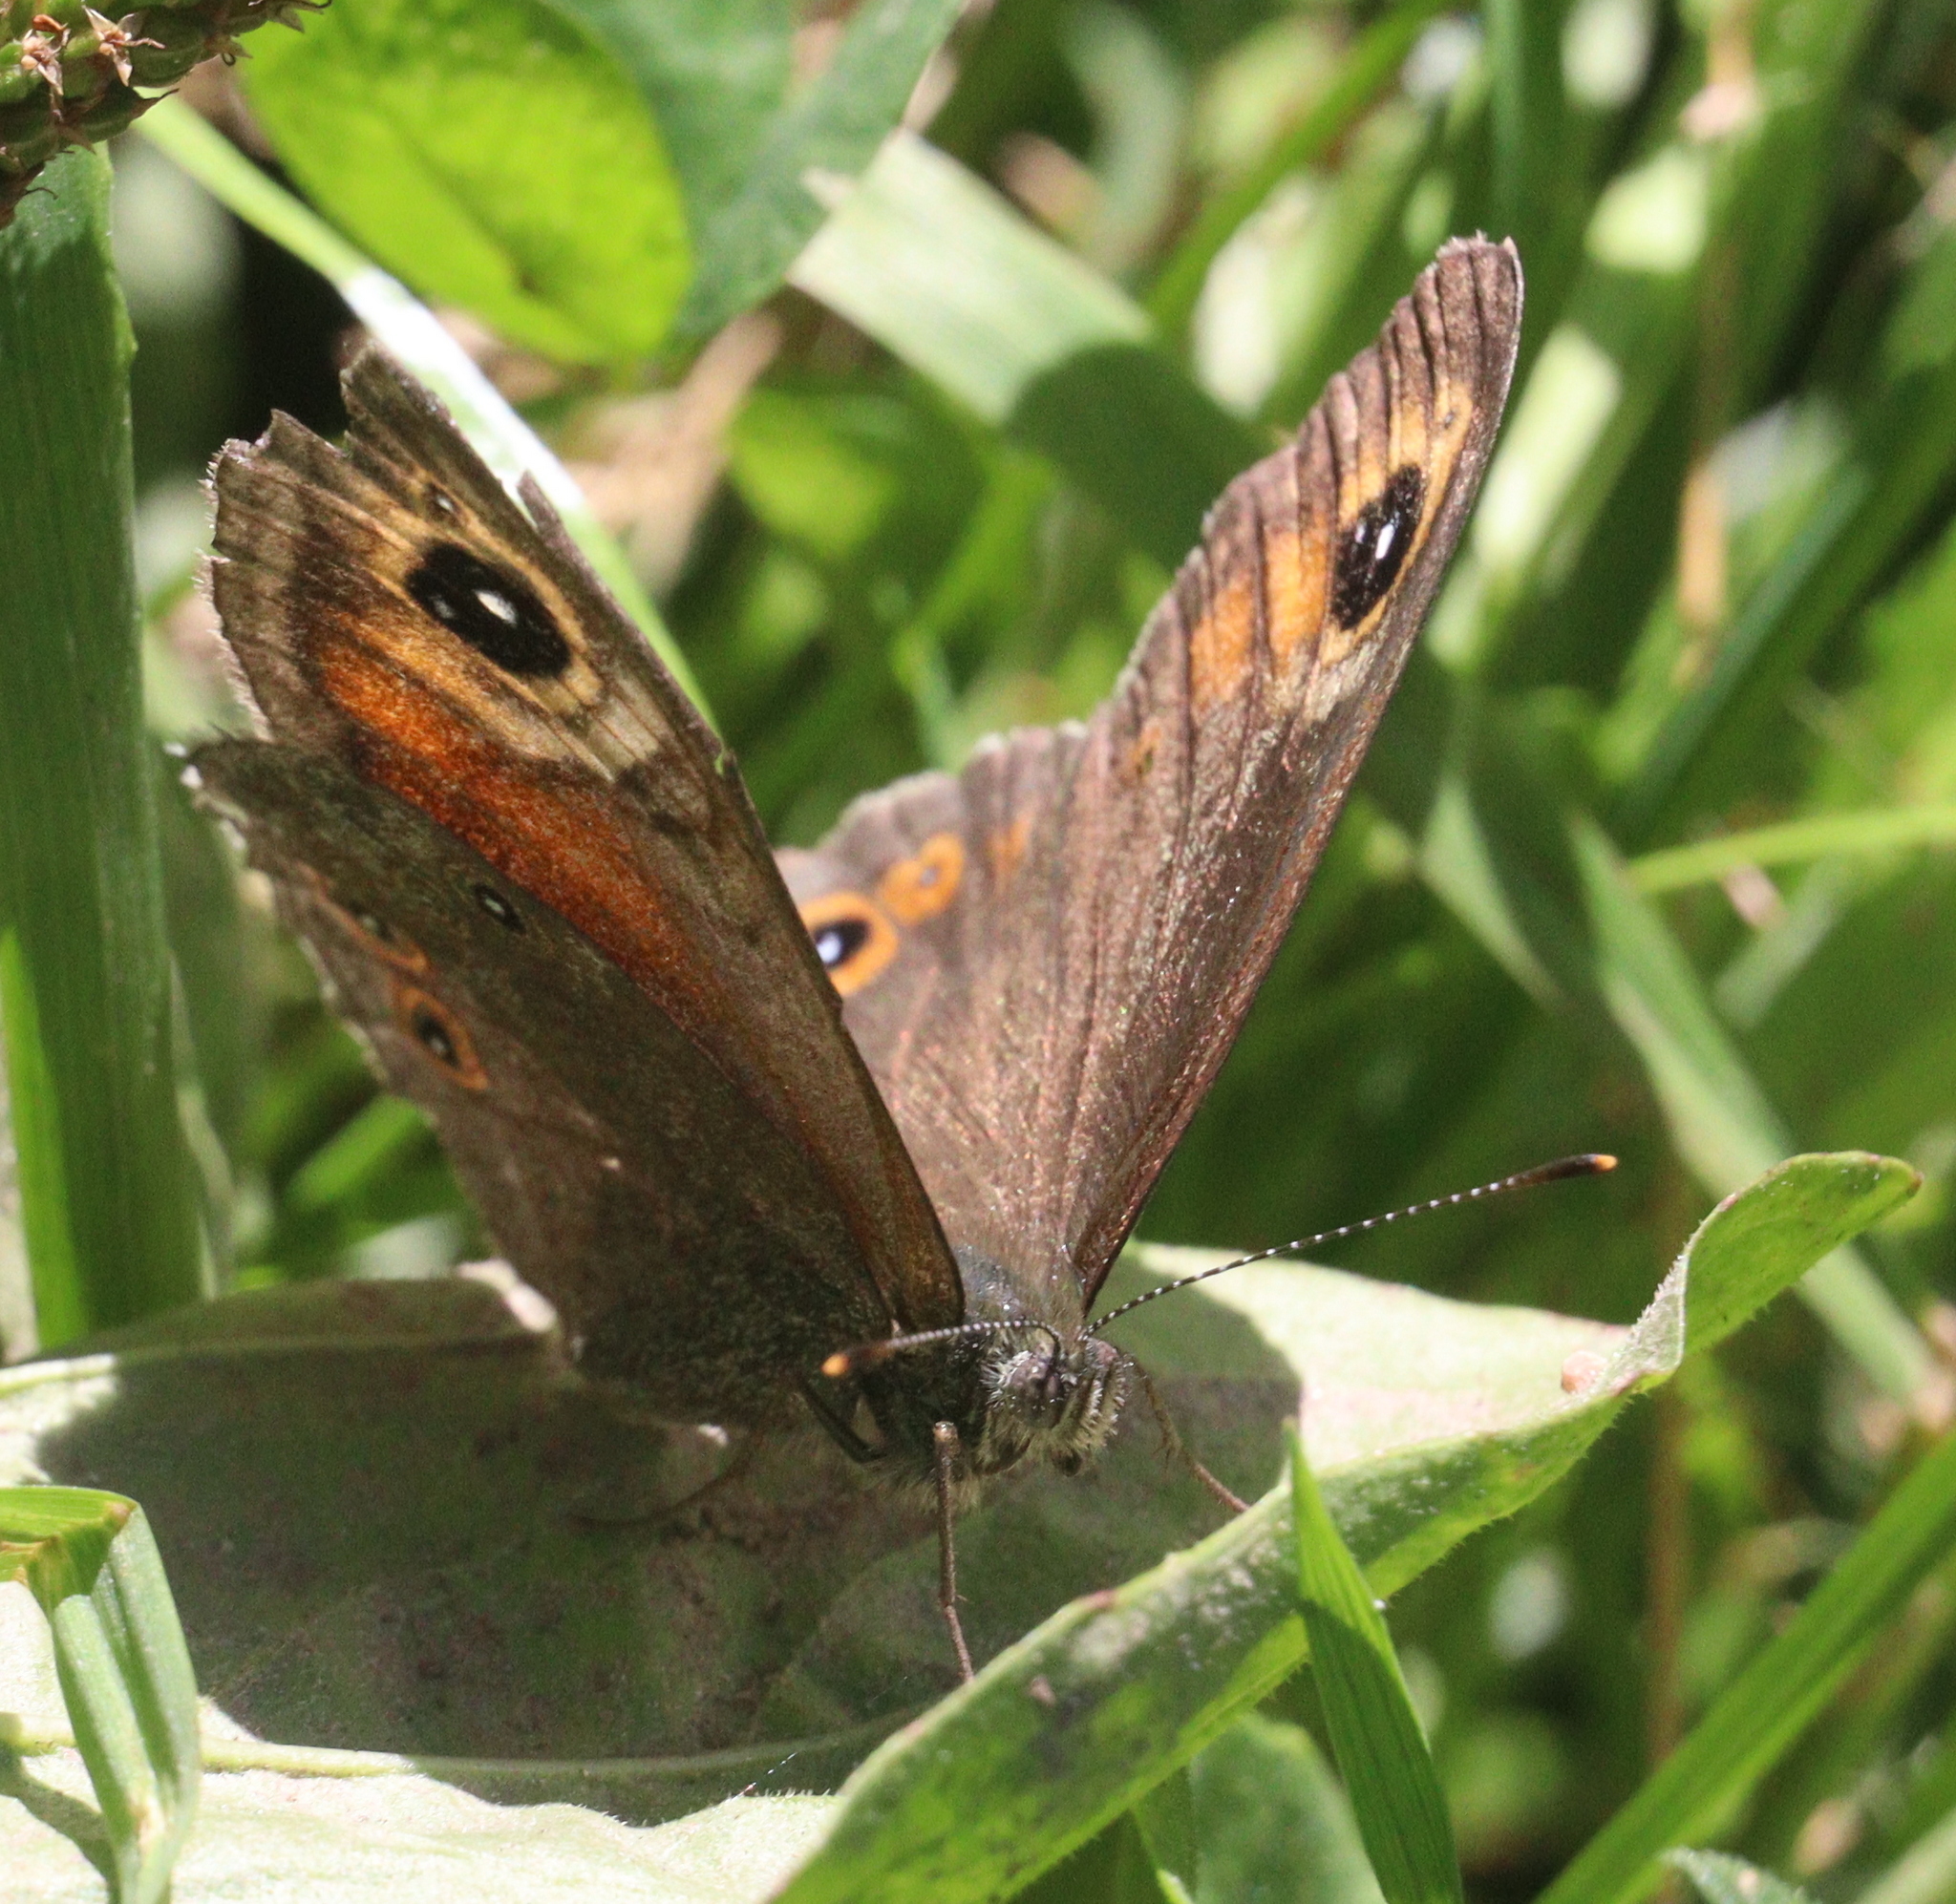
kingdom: Animalia
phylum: Arthropoda
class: Insecta
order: Lepidoptera
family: Nymphalidae
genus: Pararge
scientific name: Pararge Lasiommata maera
